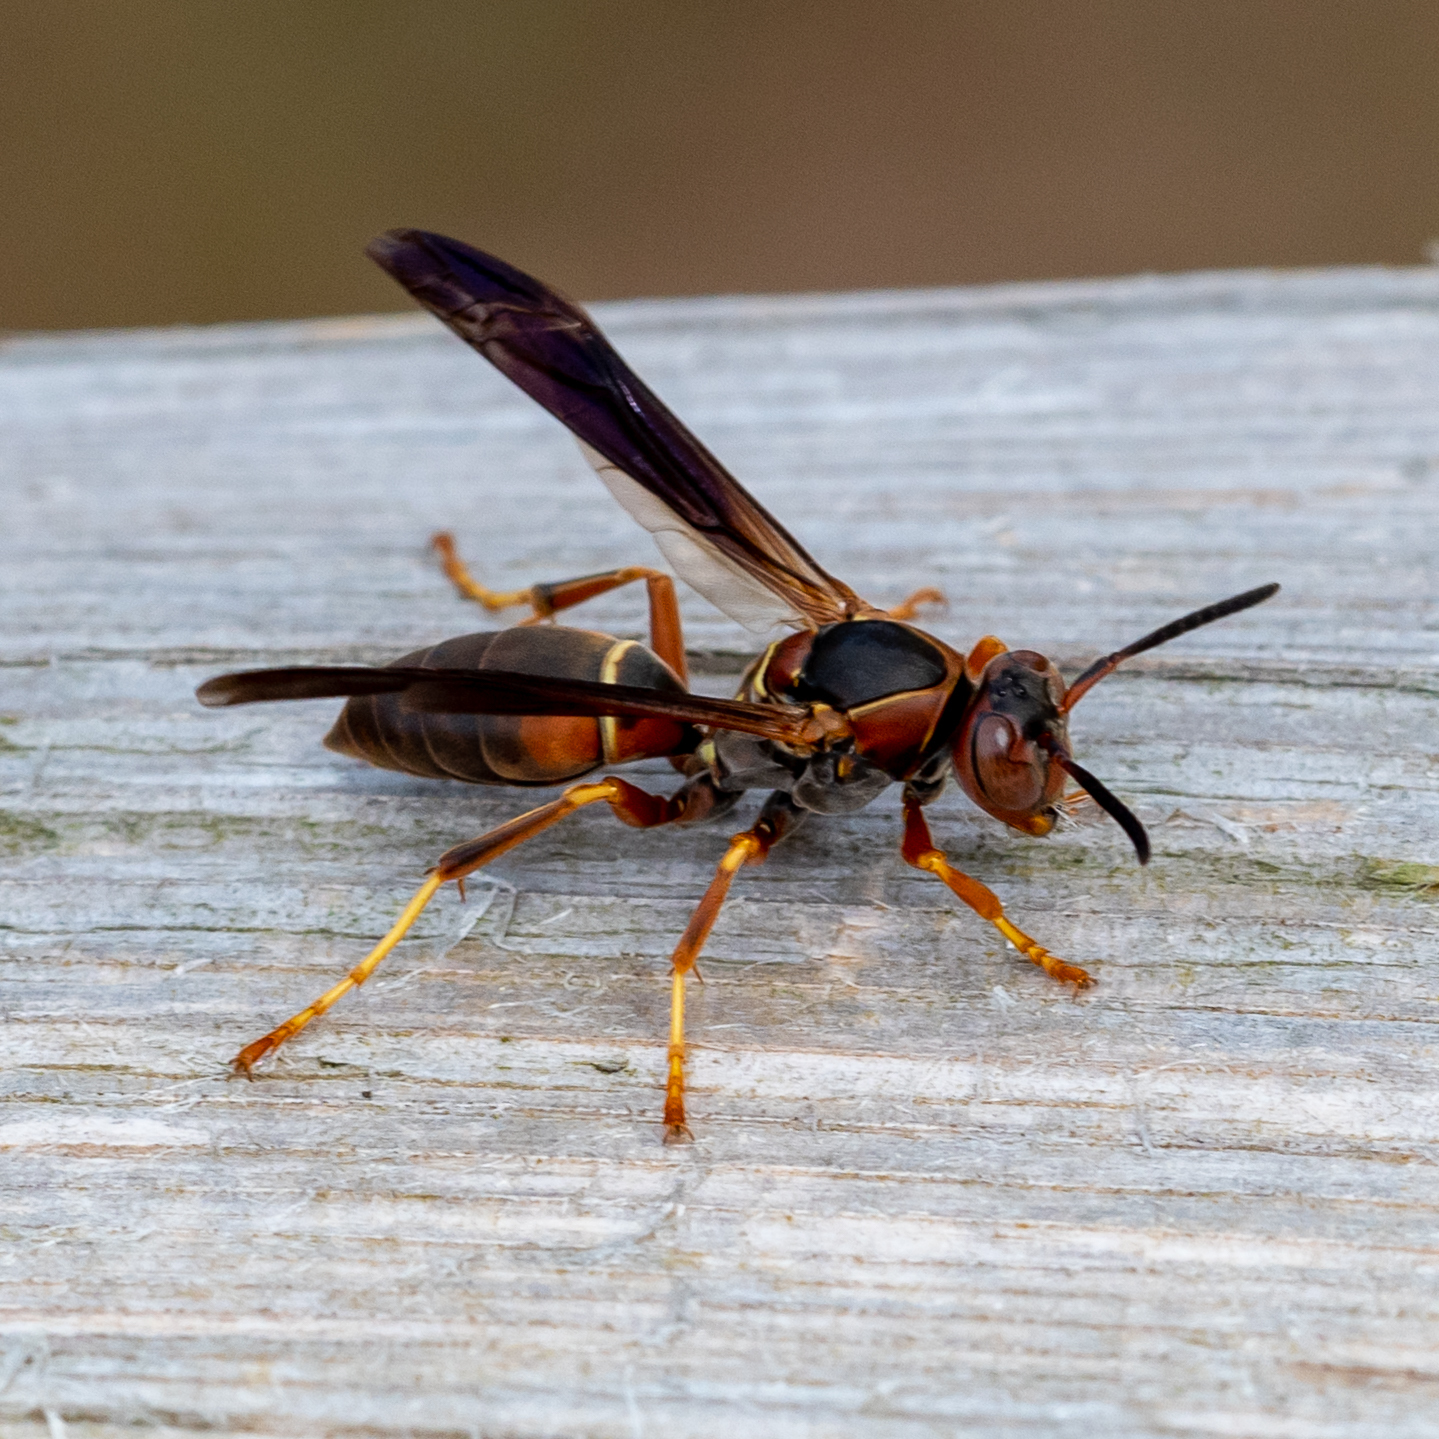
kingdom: Animalia
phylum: Arthropoda
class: Insecta
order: Hymenoptera
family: Eumenidae
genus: Polistes
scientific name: Polistes fuscatus
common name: Dark paper wasp
